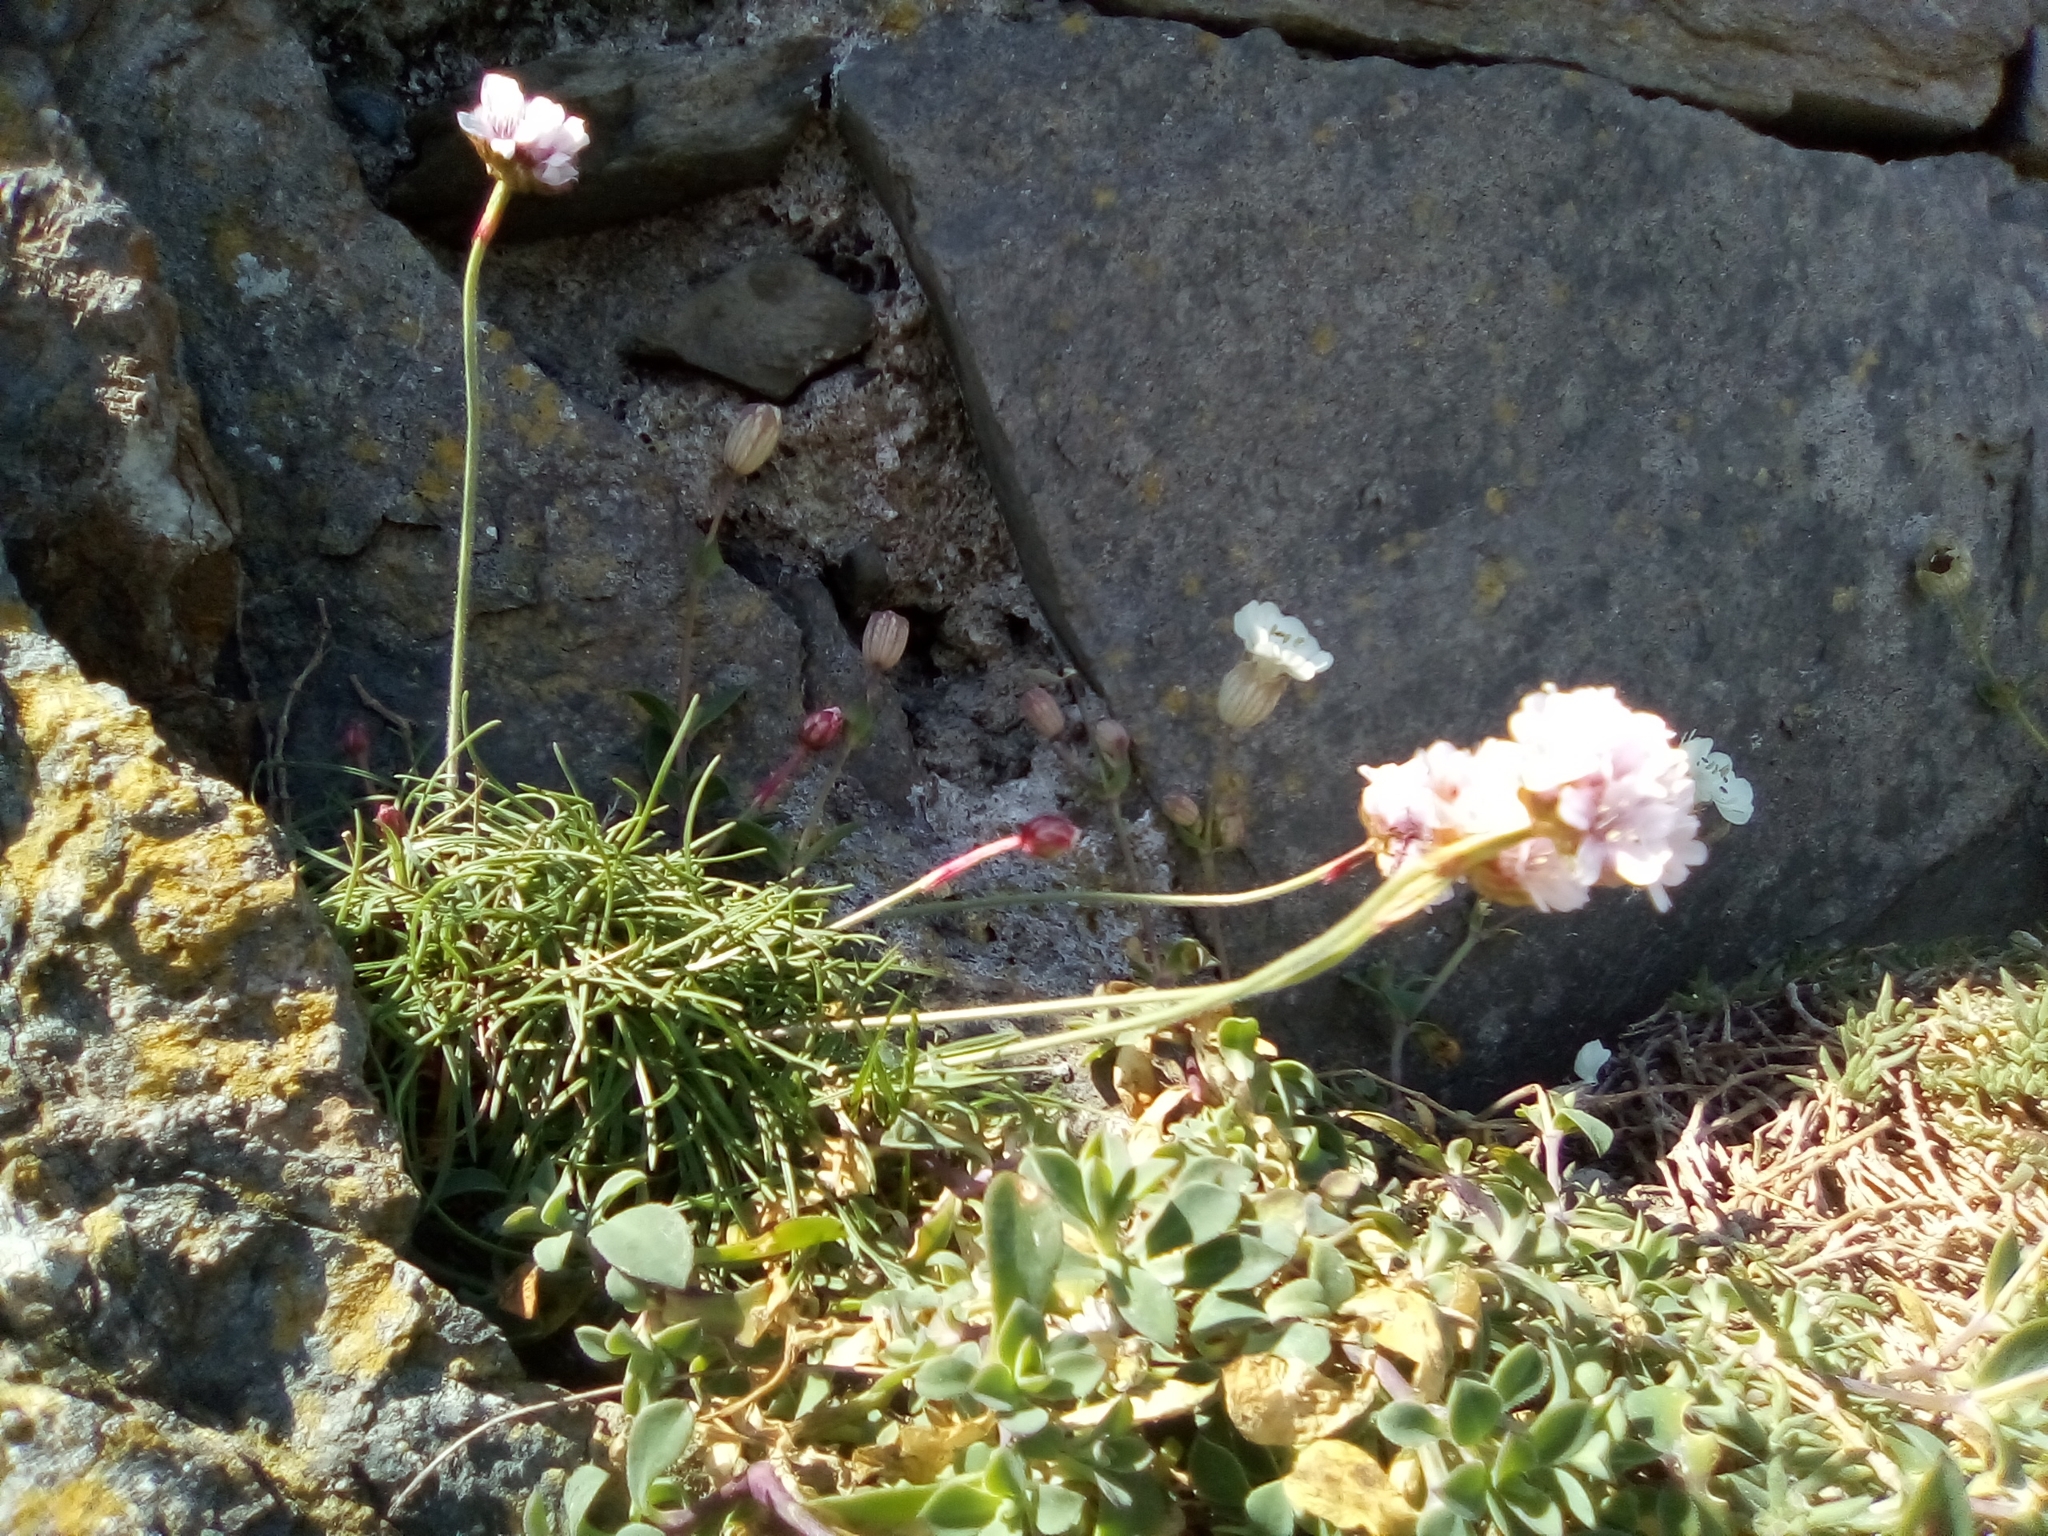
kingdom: Plantae
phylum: Tracheophyta
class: Magnoliopsida
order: Caryophyllales
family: Plumbaginaceae
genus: Armeria
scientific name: Armeria maritima
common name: Thrift
